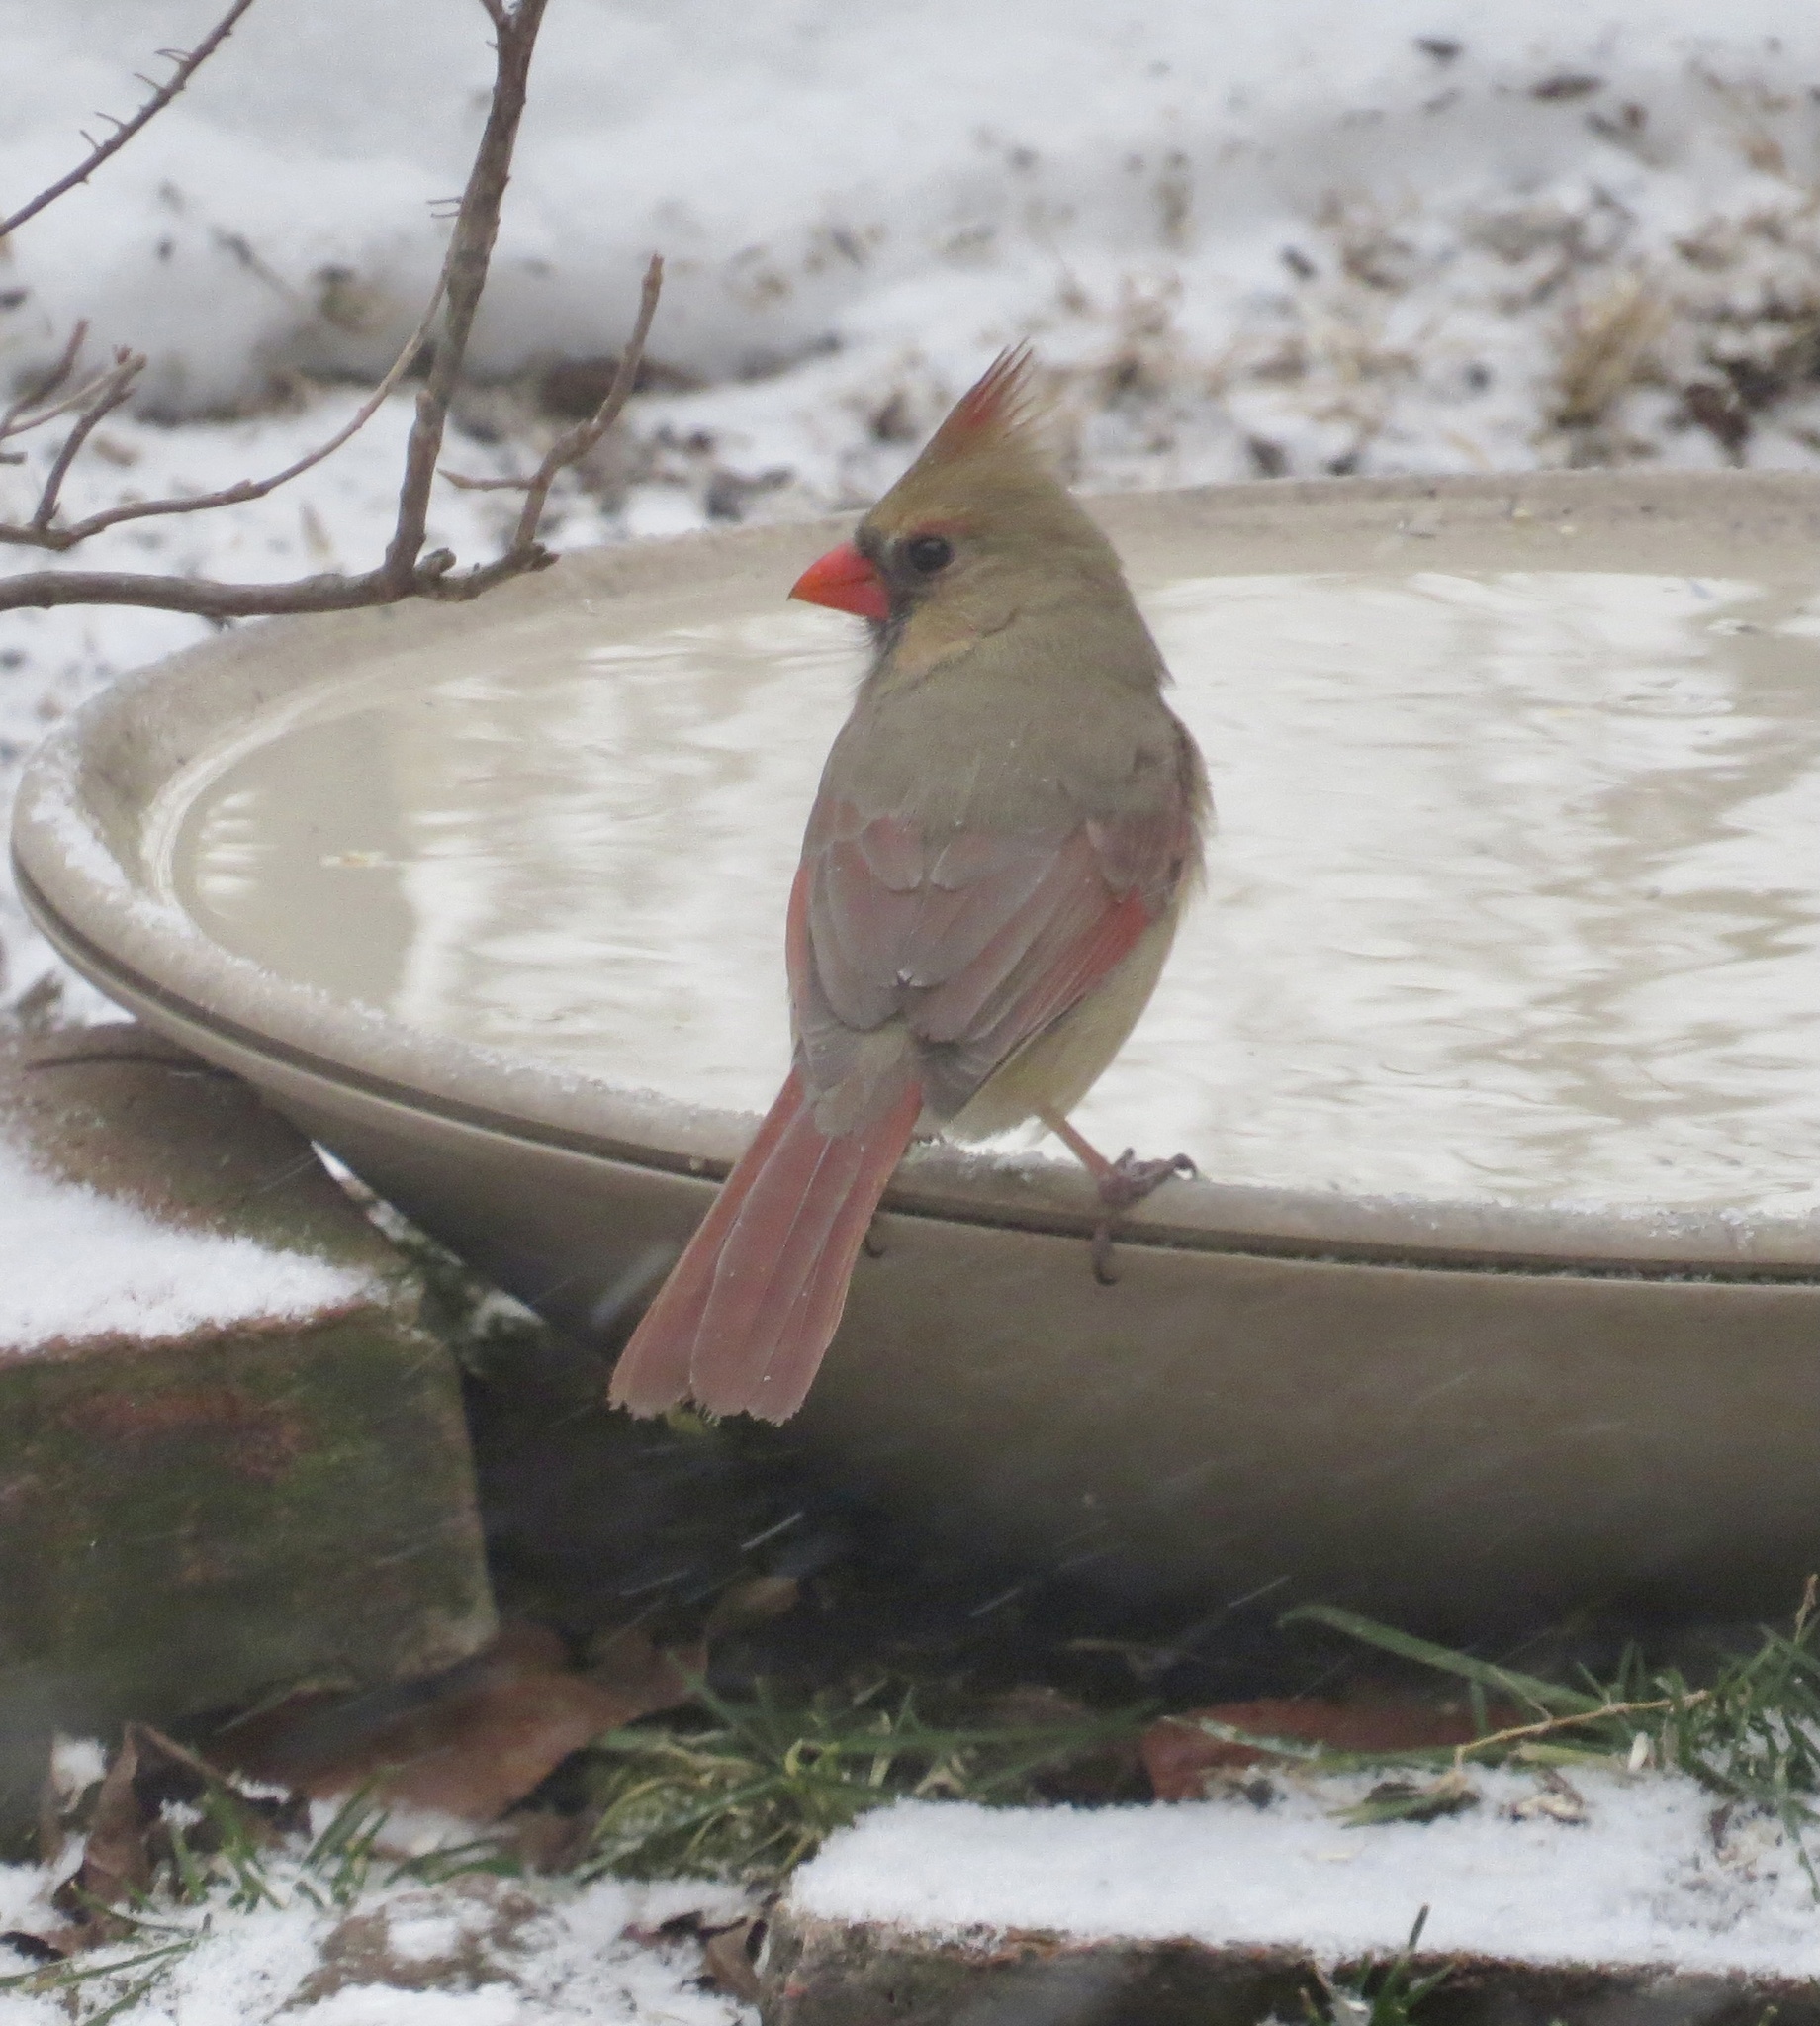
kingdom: Animalia
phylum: Chordata
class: Aves
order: Passeriformes
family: Cardinalidae
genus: Cardinalis
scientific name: Cardinalis cardinalis
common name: Northern cardinal
